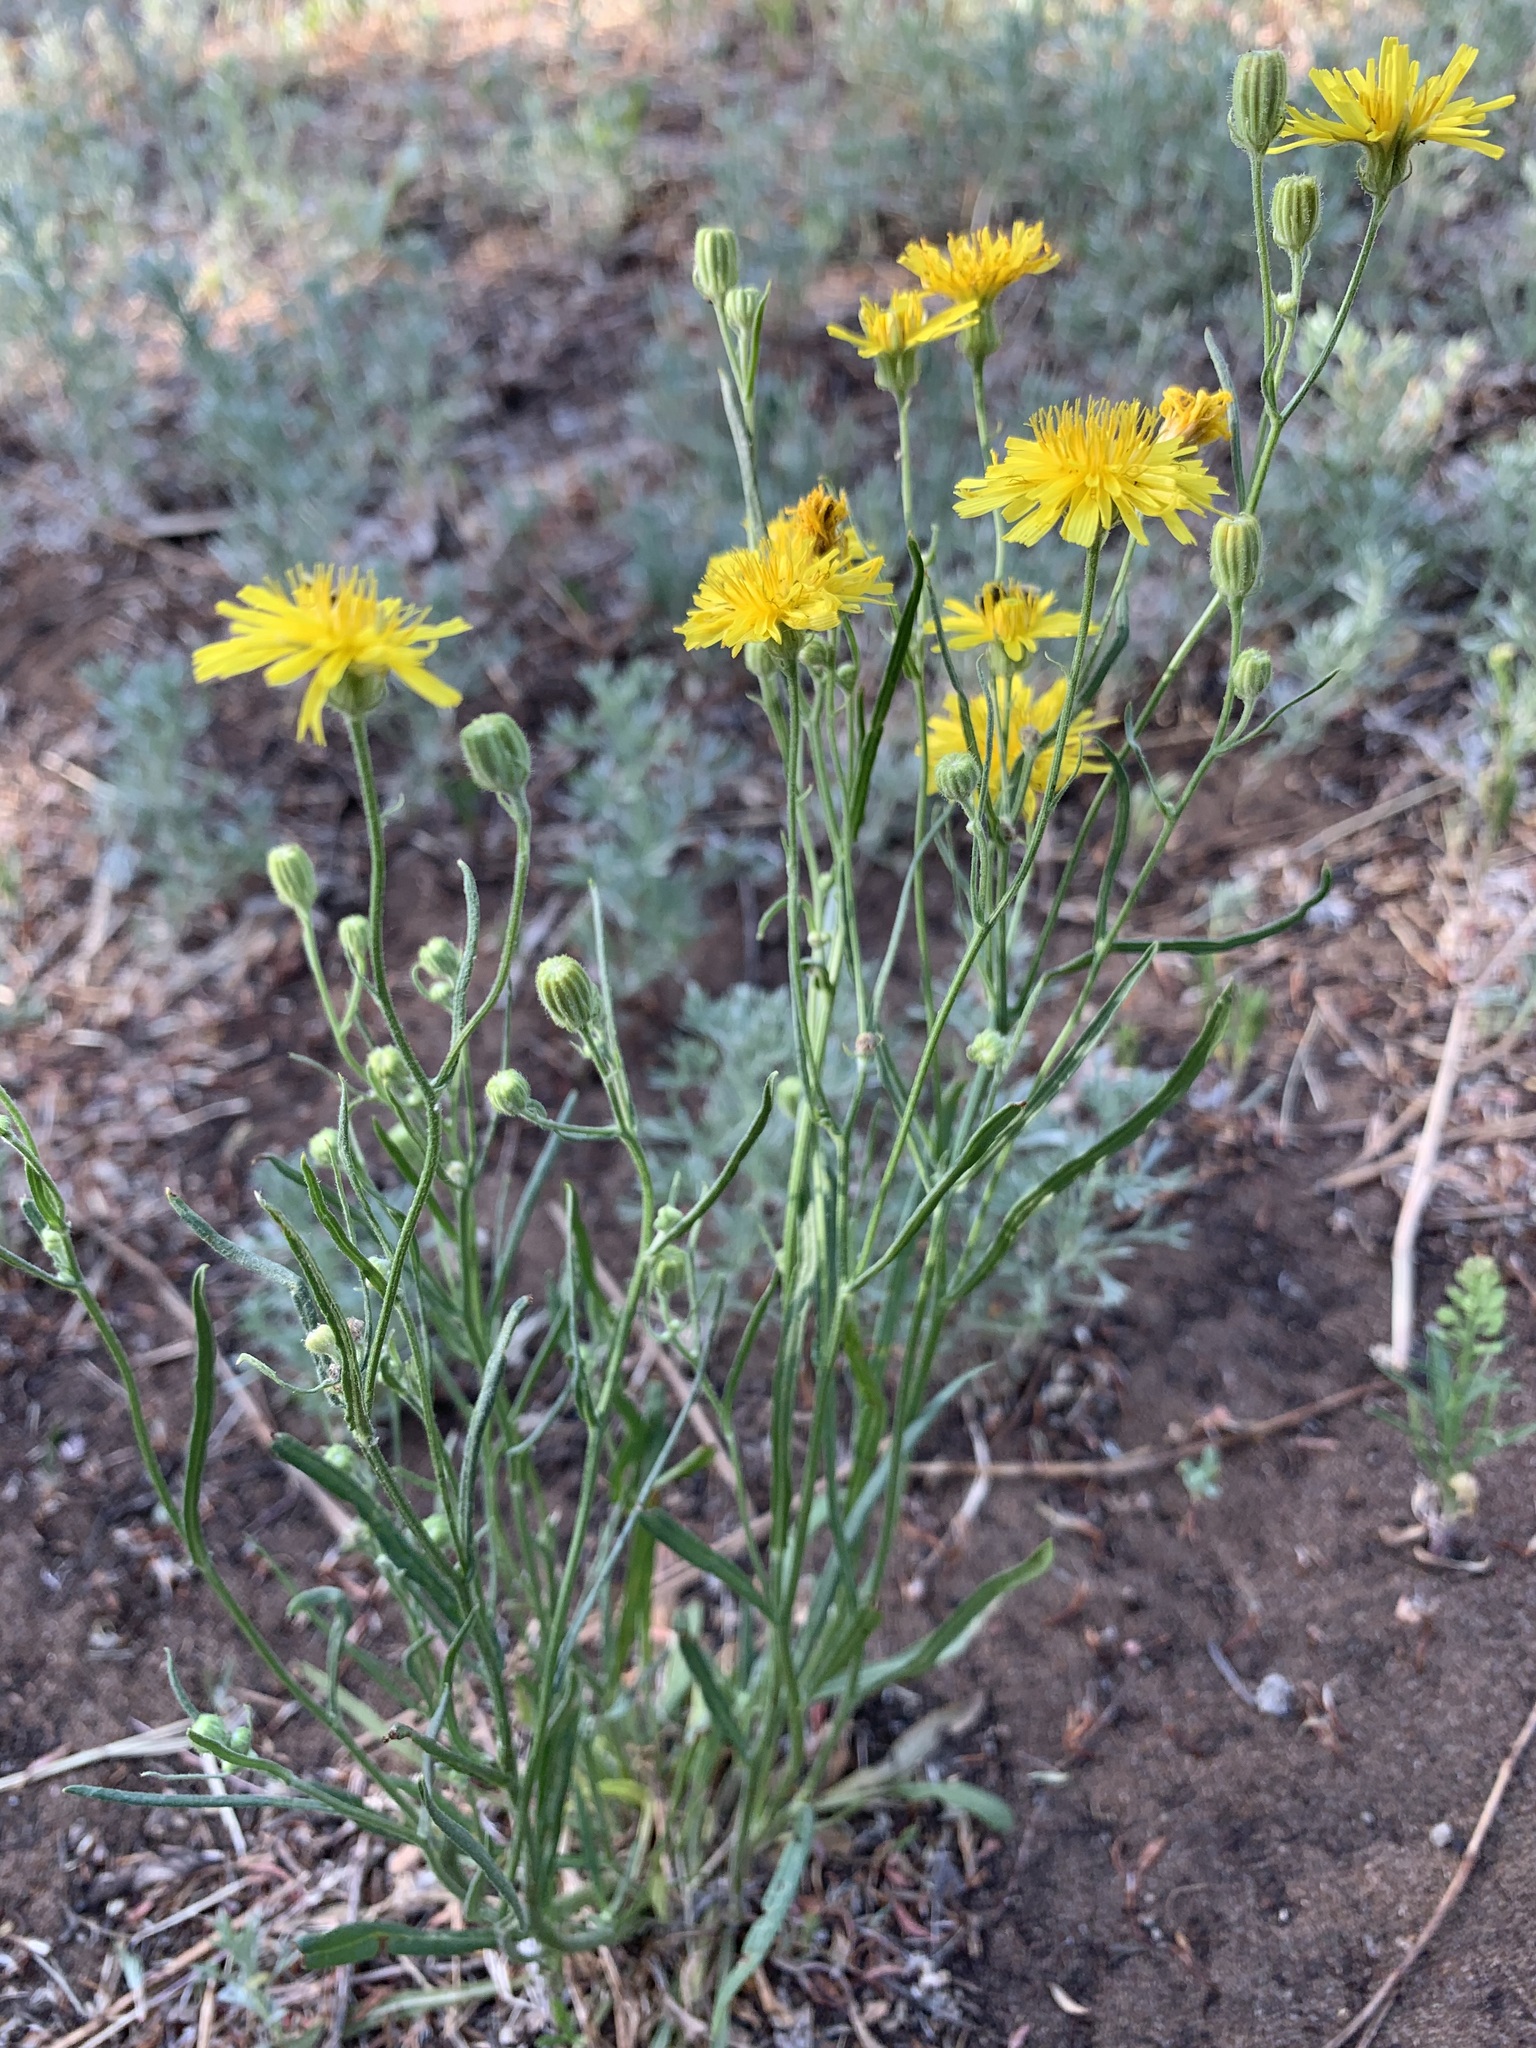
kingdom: Plantae
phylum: Tracheophyta
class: Magnoliopsida
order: Asterales
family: Asteraceae
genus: Crepis
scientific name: Crepis tectorum
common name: Narrow-leaved hawk's-beard
